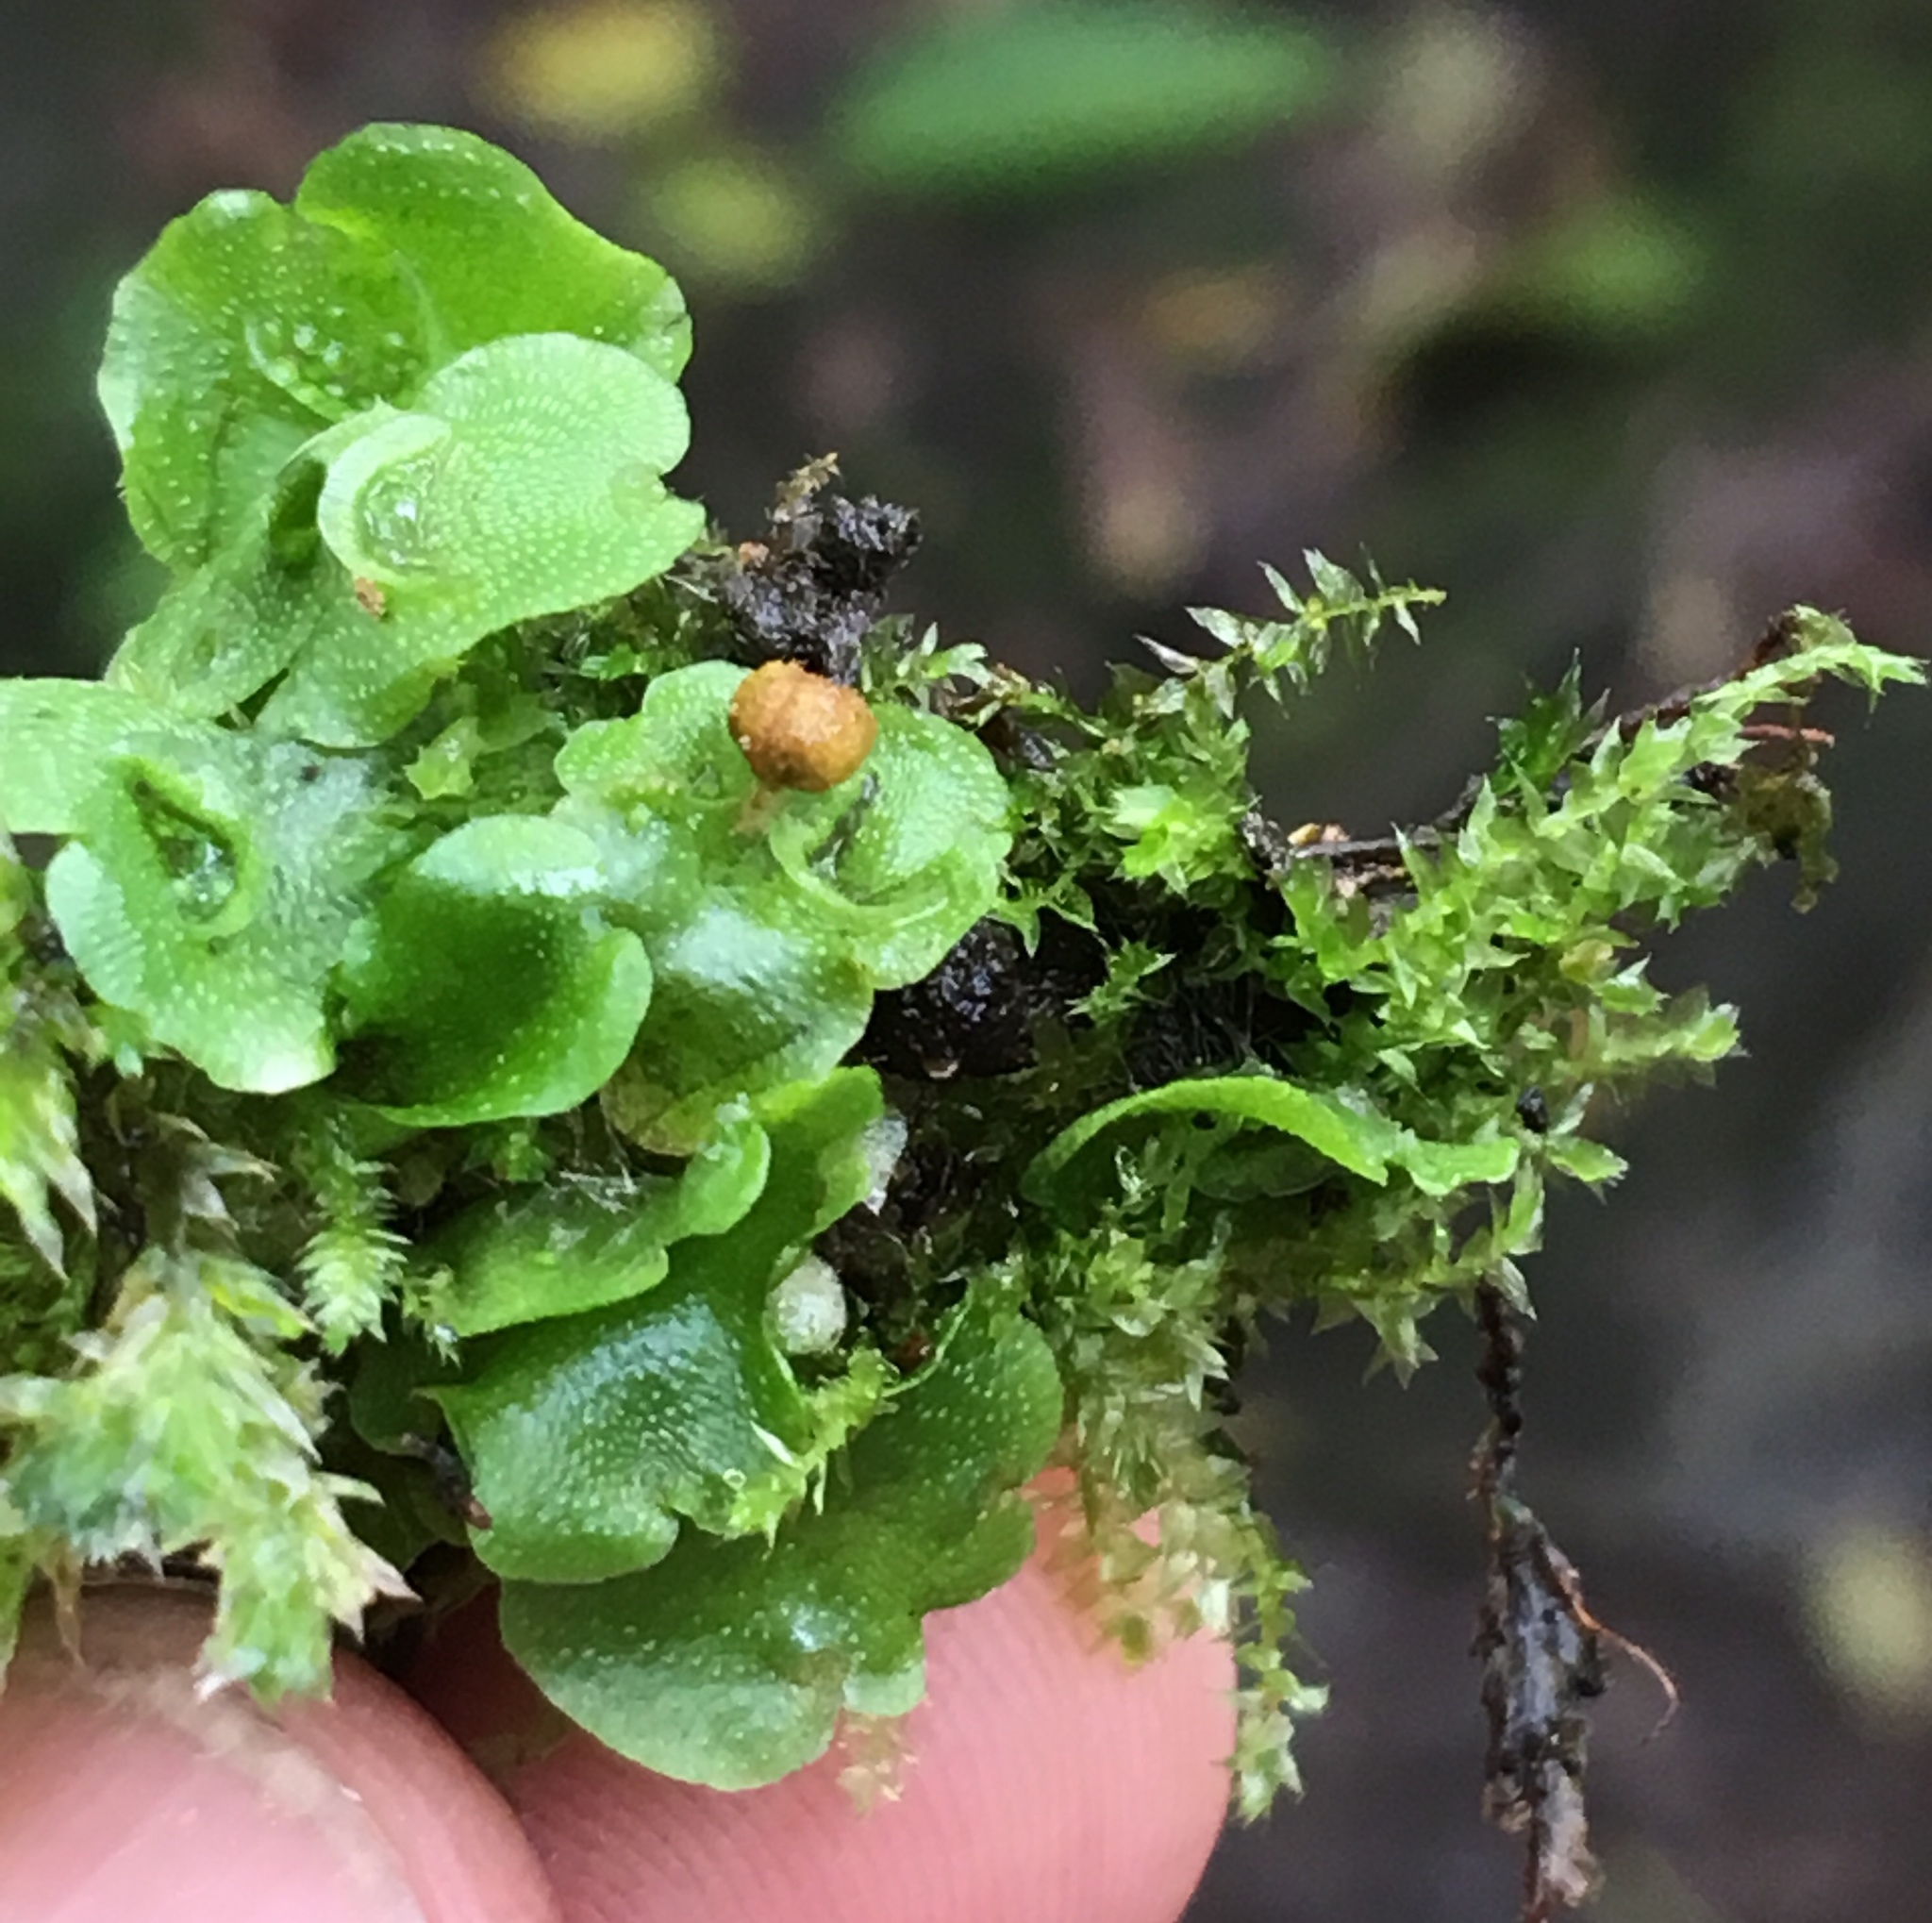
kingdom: Plantae
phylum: Marchantiophyta
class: Marchantiopsida
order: Lunulariales
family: Lunulariaceae
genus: Lunularia
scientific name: Lunularia cruciata
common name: Crescent-cup liverwort
